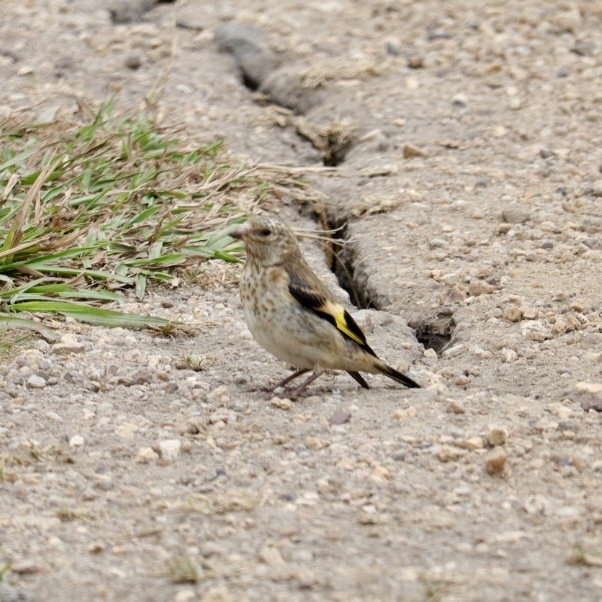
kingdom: Animalia
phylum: Chordata
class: Aves
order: Passeriformes
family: Fringillidae
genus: Carduelis
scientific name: Carduelis carduelis
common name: European goldfinch
